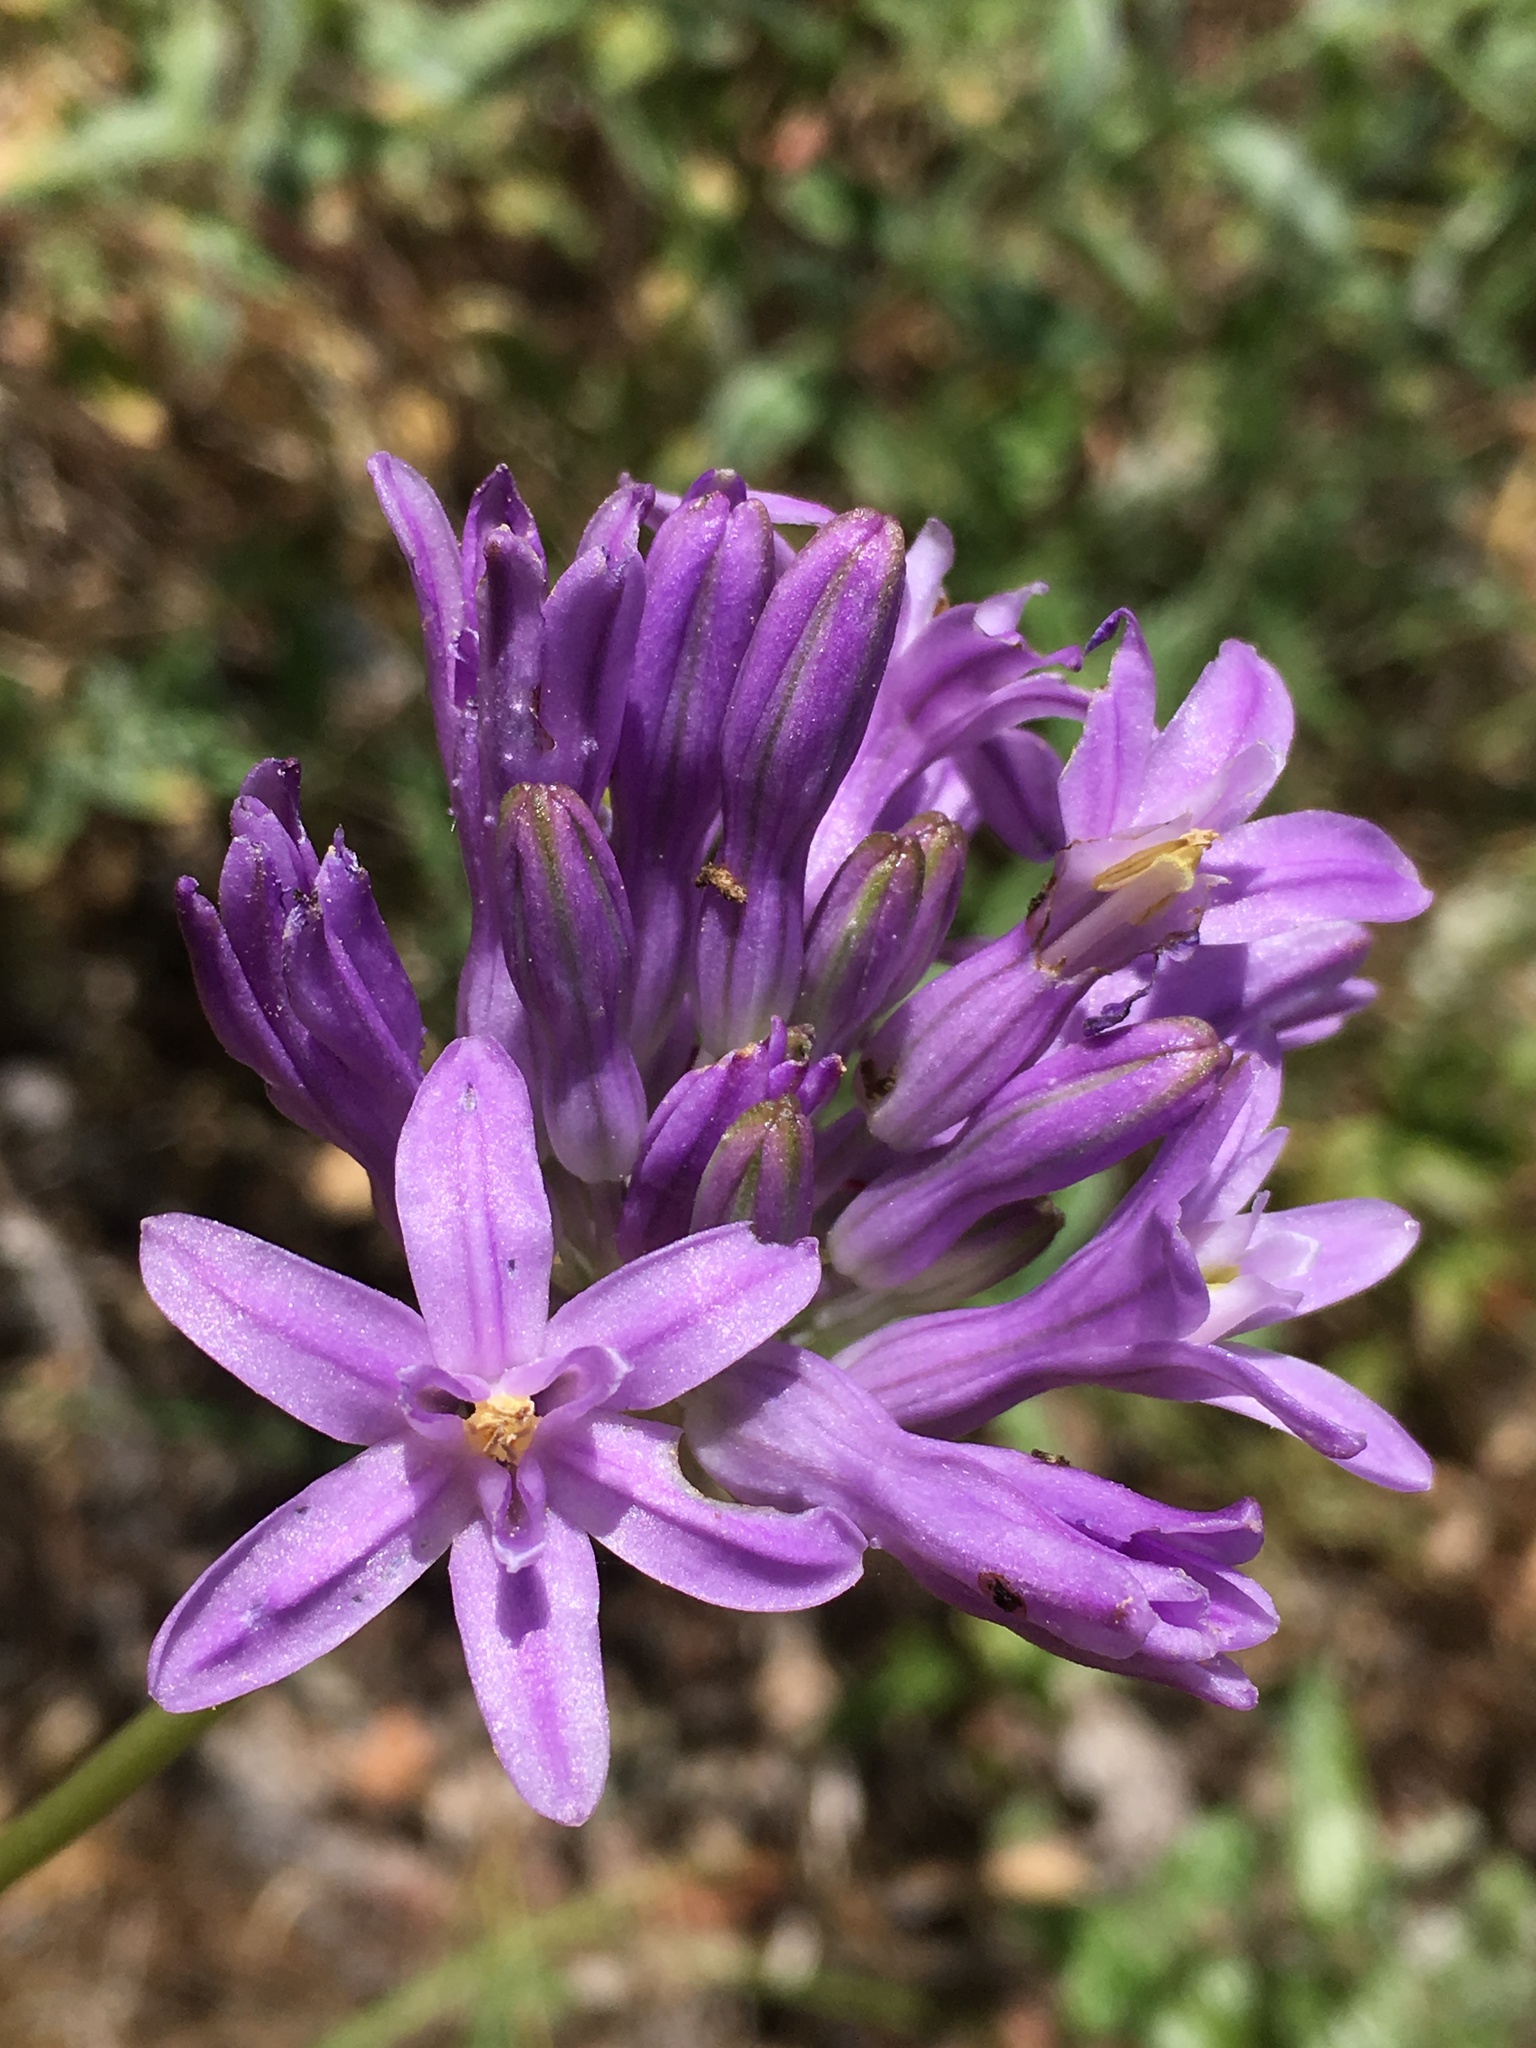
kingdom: Plantae
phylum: Tracheophyta
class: Liliopsida
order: Asparagales
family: Asparagaceae
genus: Dichelostemma
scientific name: Dichelostemma multiflorum
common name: Round-tooth ookow
